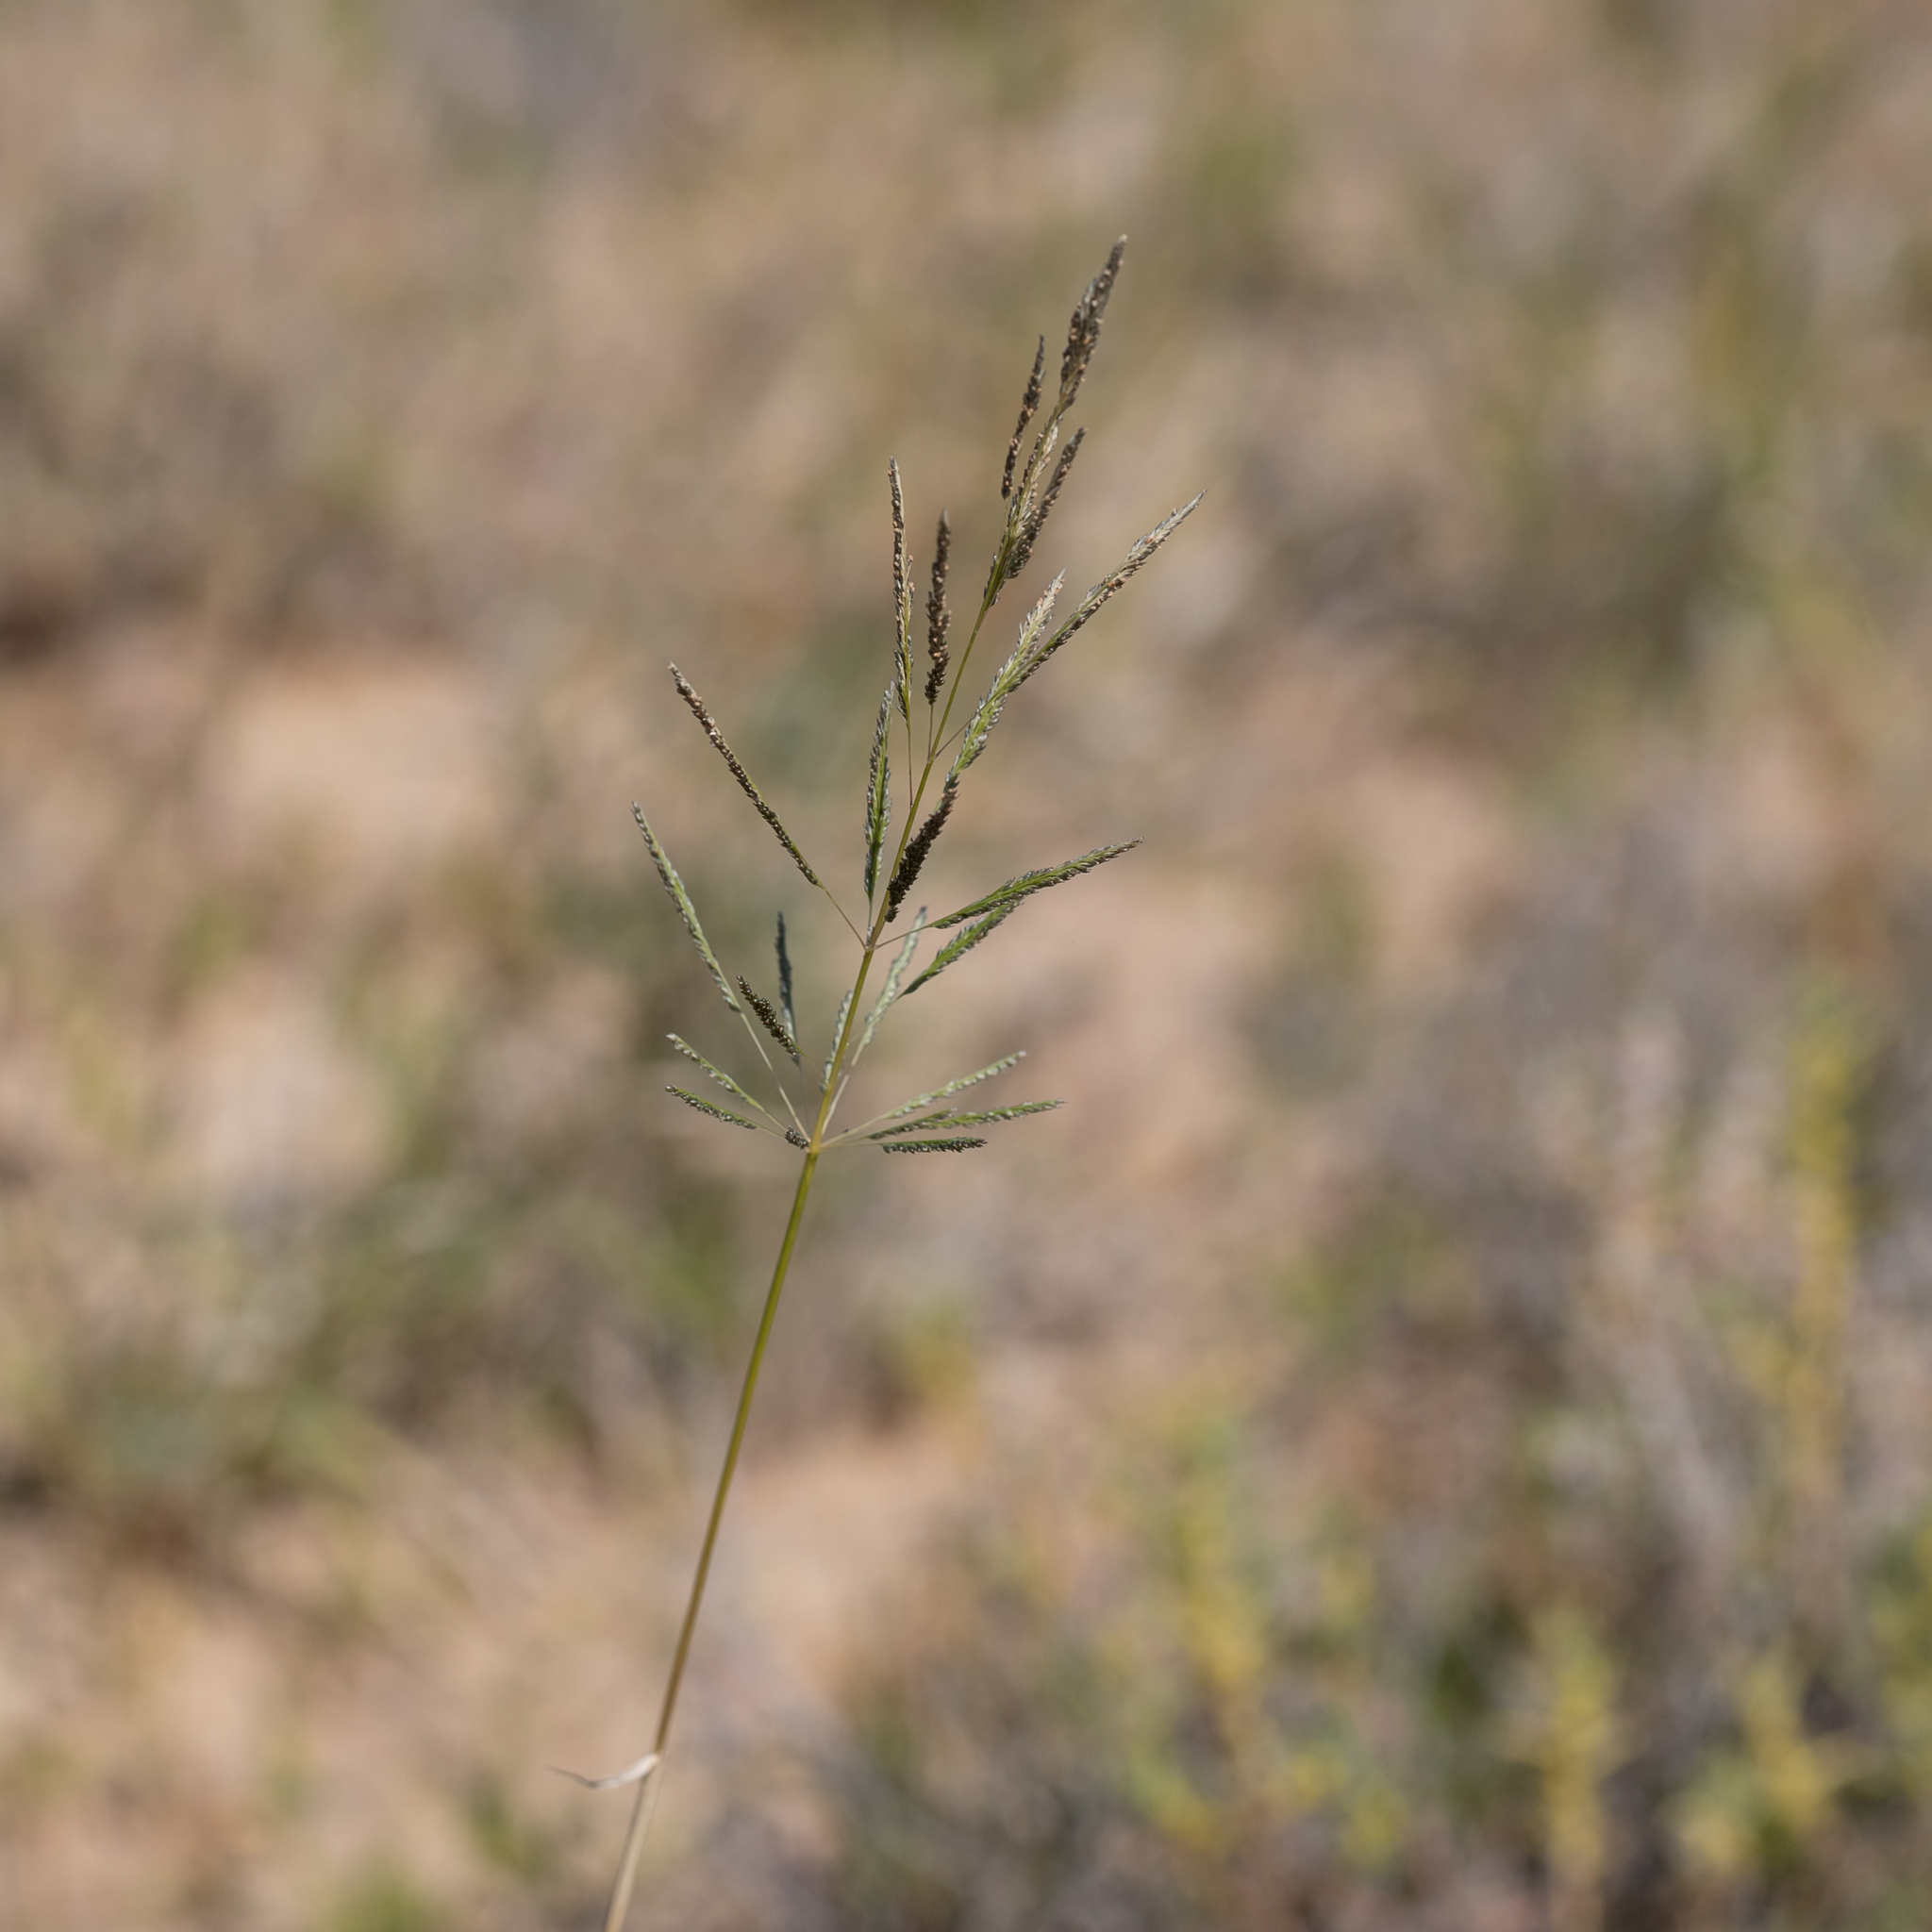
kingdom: Plantae
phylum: Tracheophyta
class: Liliopsida
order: Poales
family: Poaceae
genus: Sporobolus
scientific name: Sporobolus actinocladus
